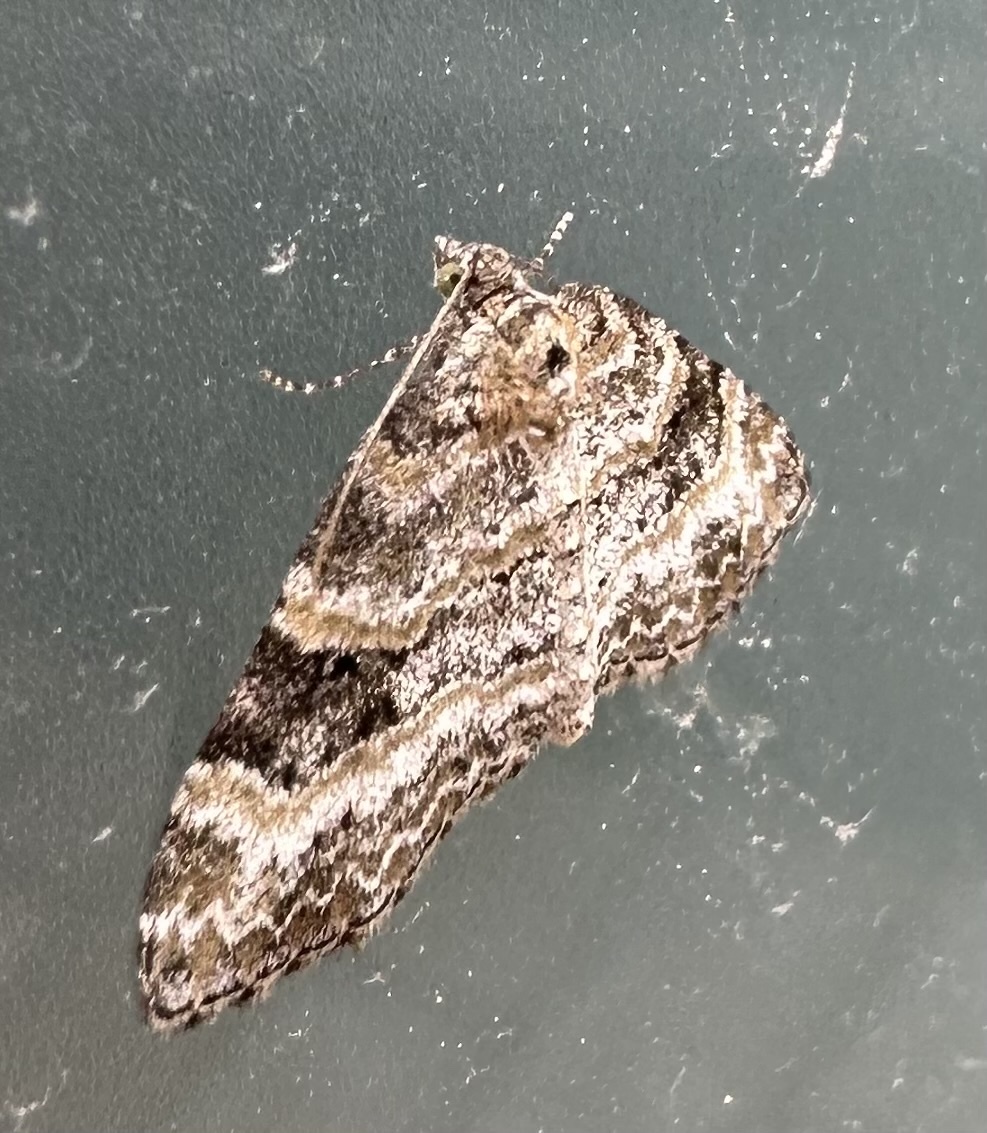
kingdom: Animalia
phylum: Arthropoda
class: Insecta
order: Lepidoptera
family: Geometridae
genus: Pterapherapteryx
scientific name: Pterapherapteryx sexalata
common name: Small seraphim
